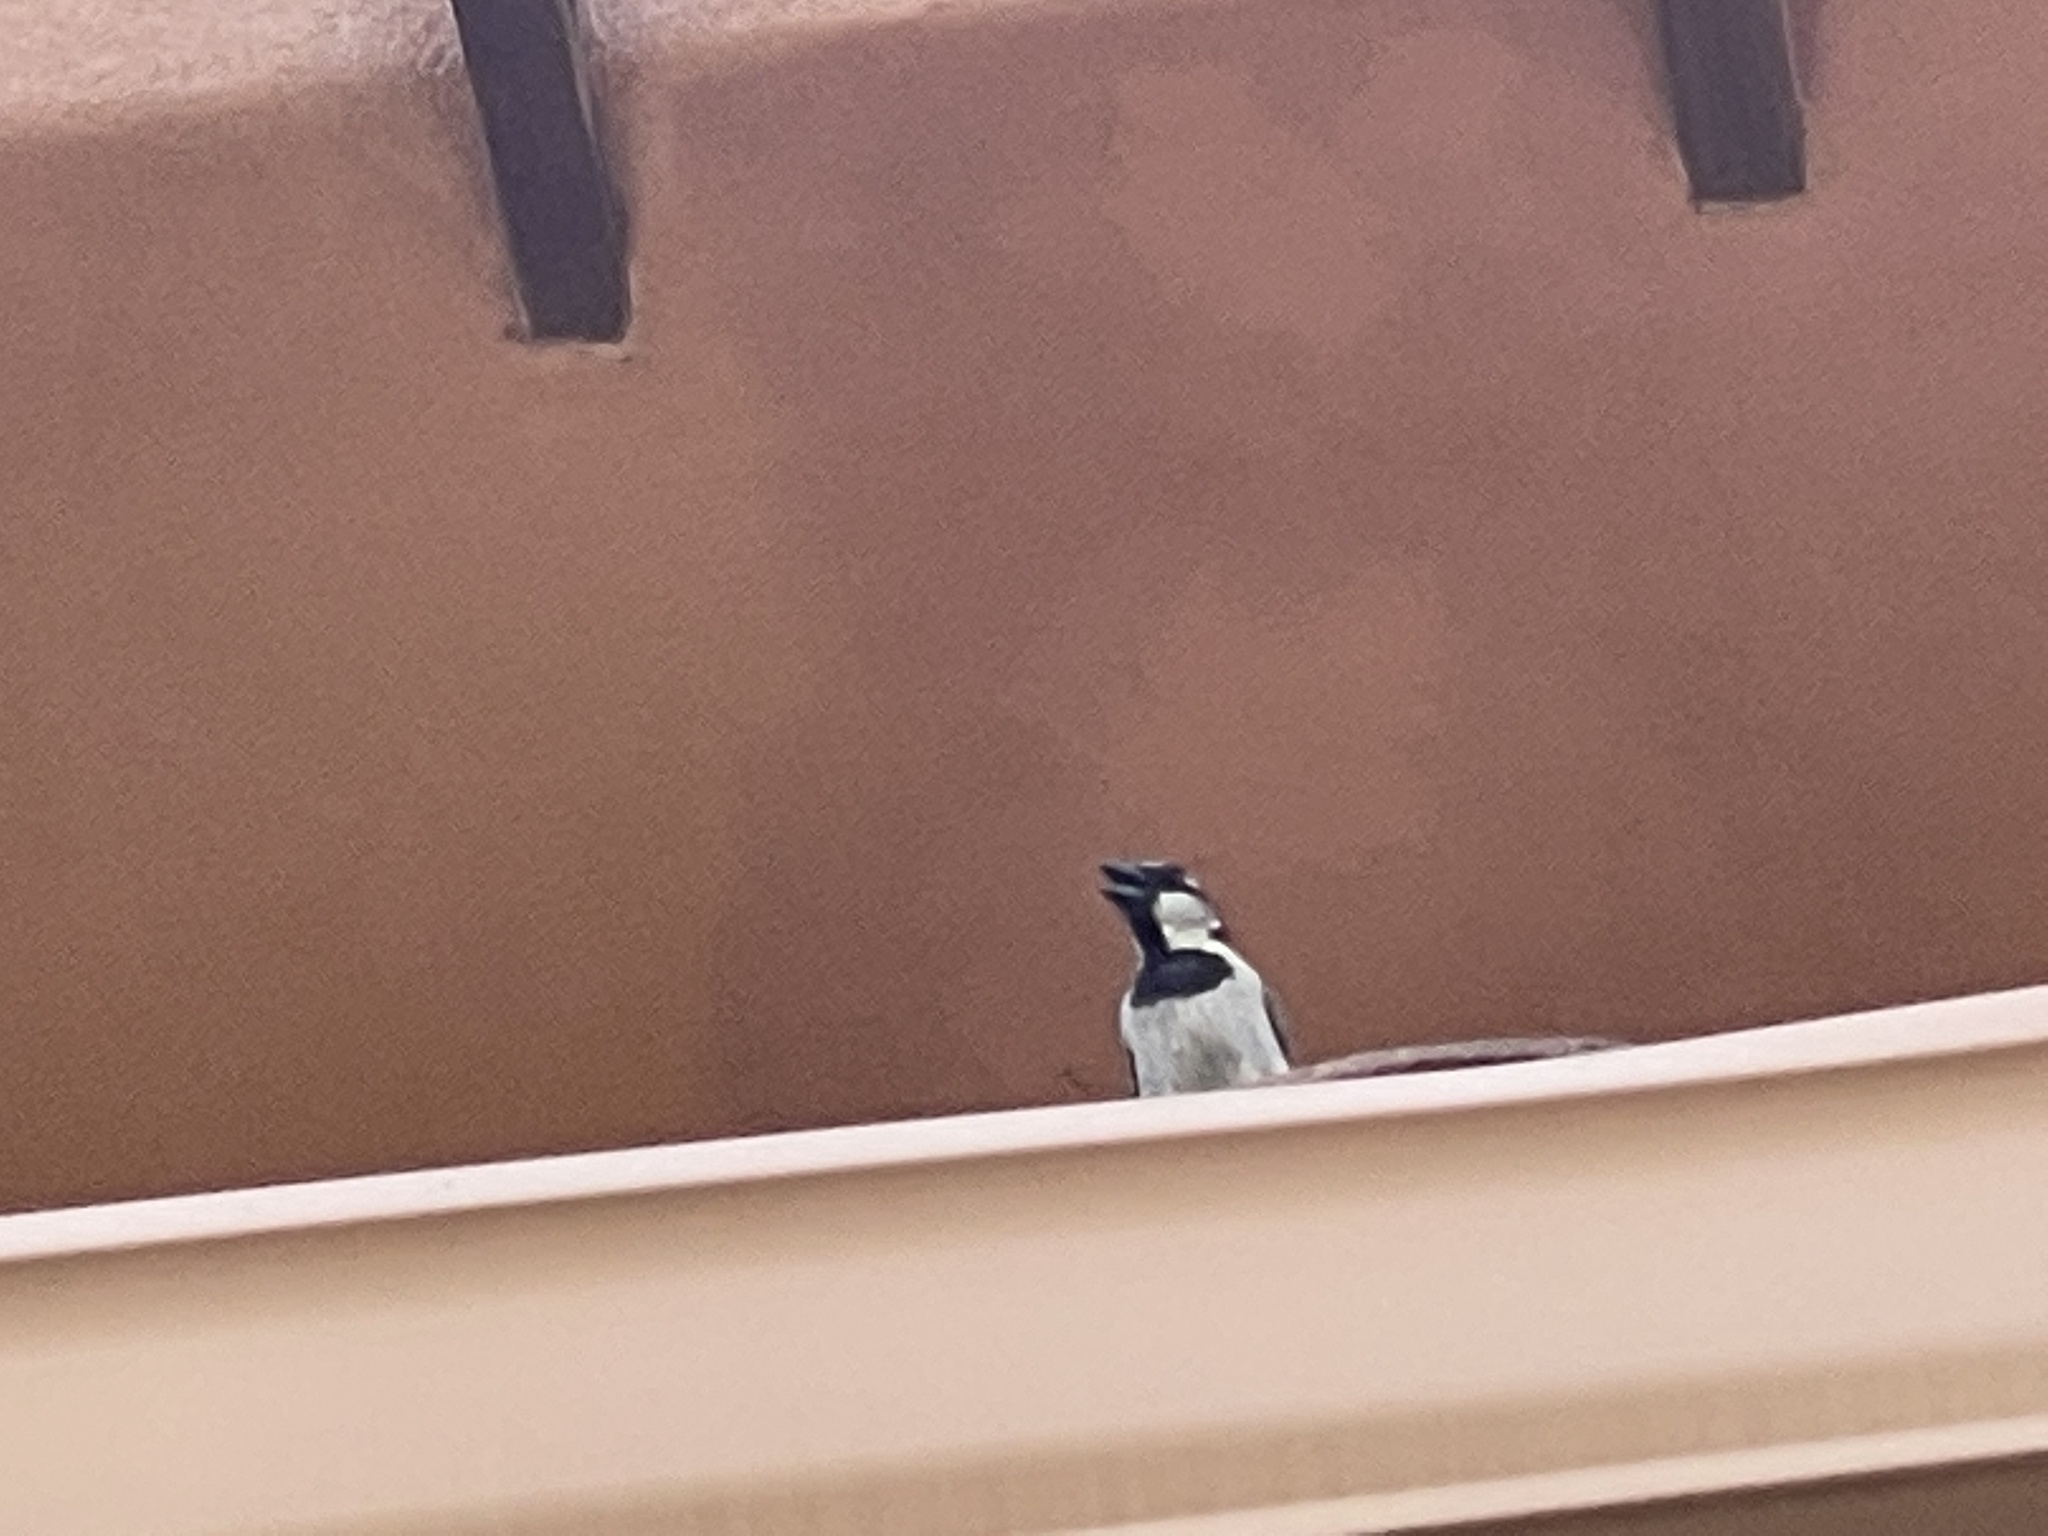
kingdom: Animalia
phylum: Chordata
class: Aves
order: Passeriformes
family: Passeridae
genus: Passer
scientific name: Passer domesticus
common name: House sparrow
